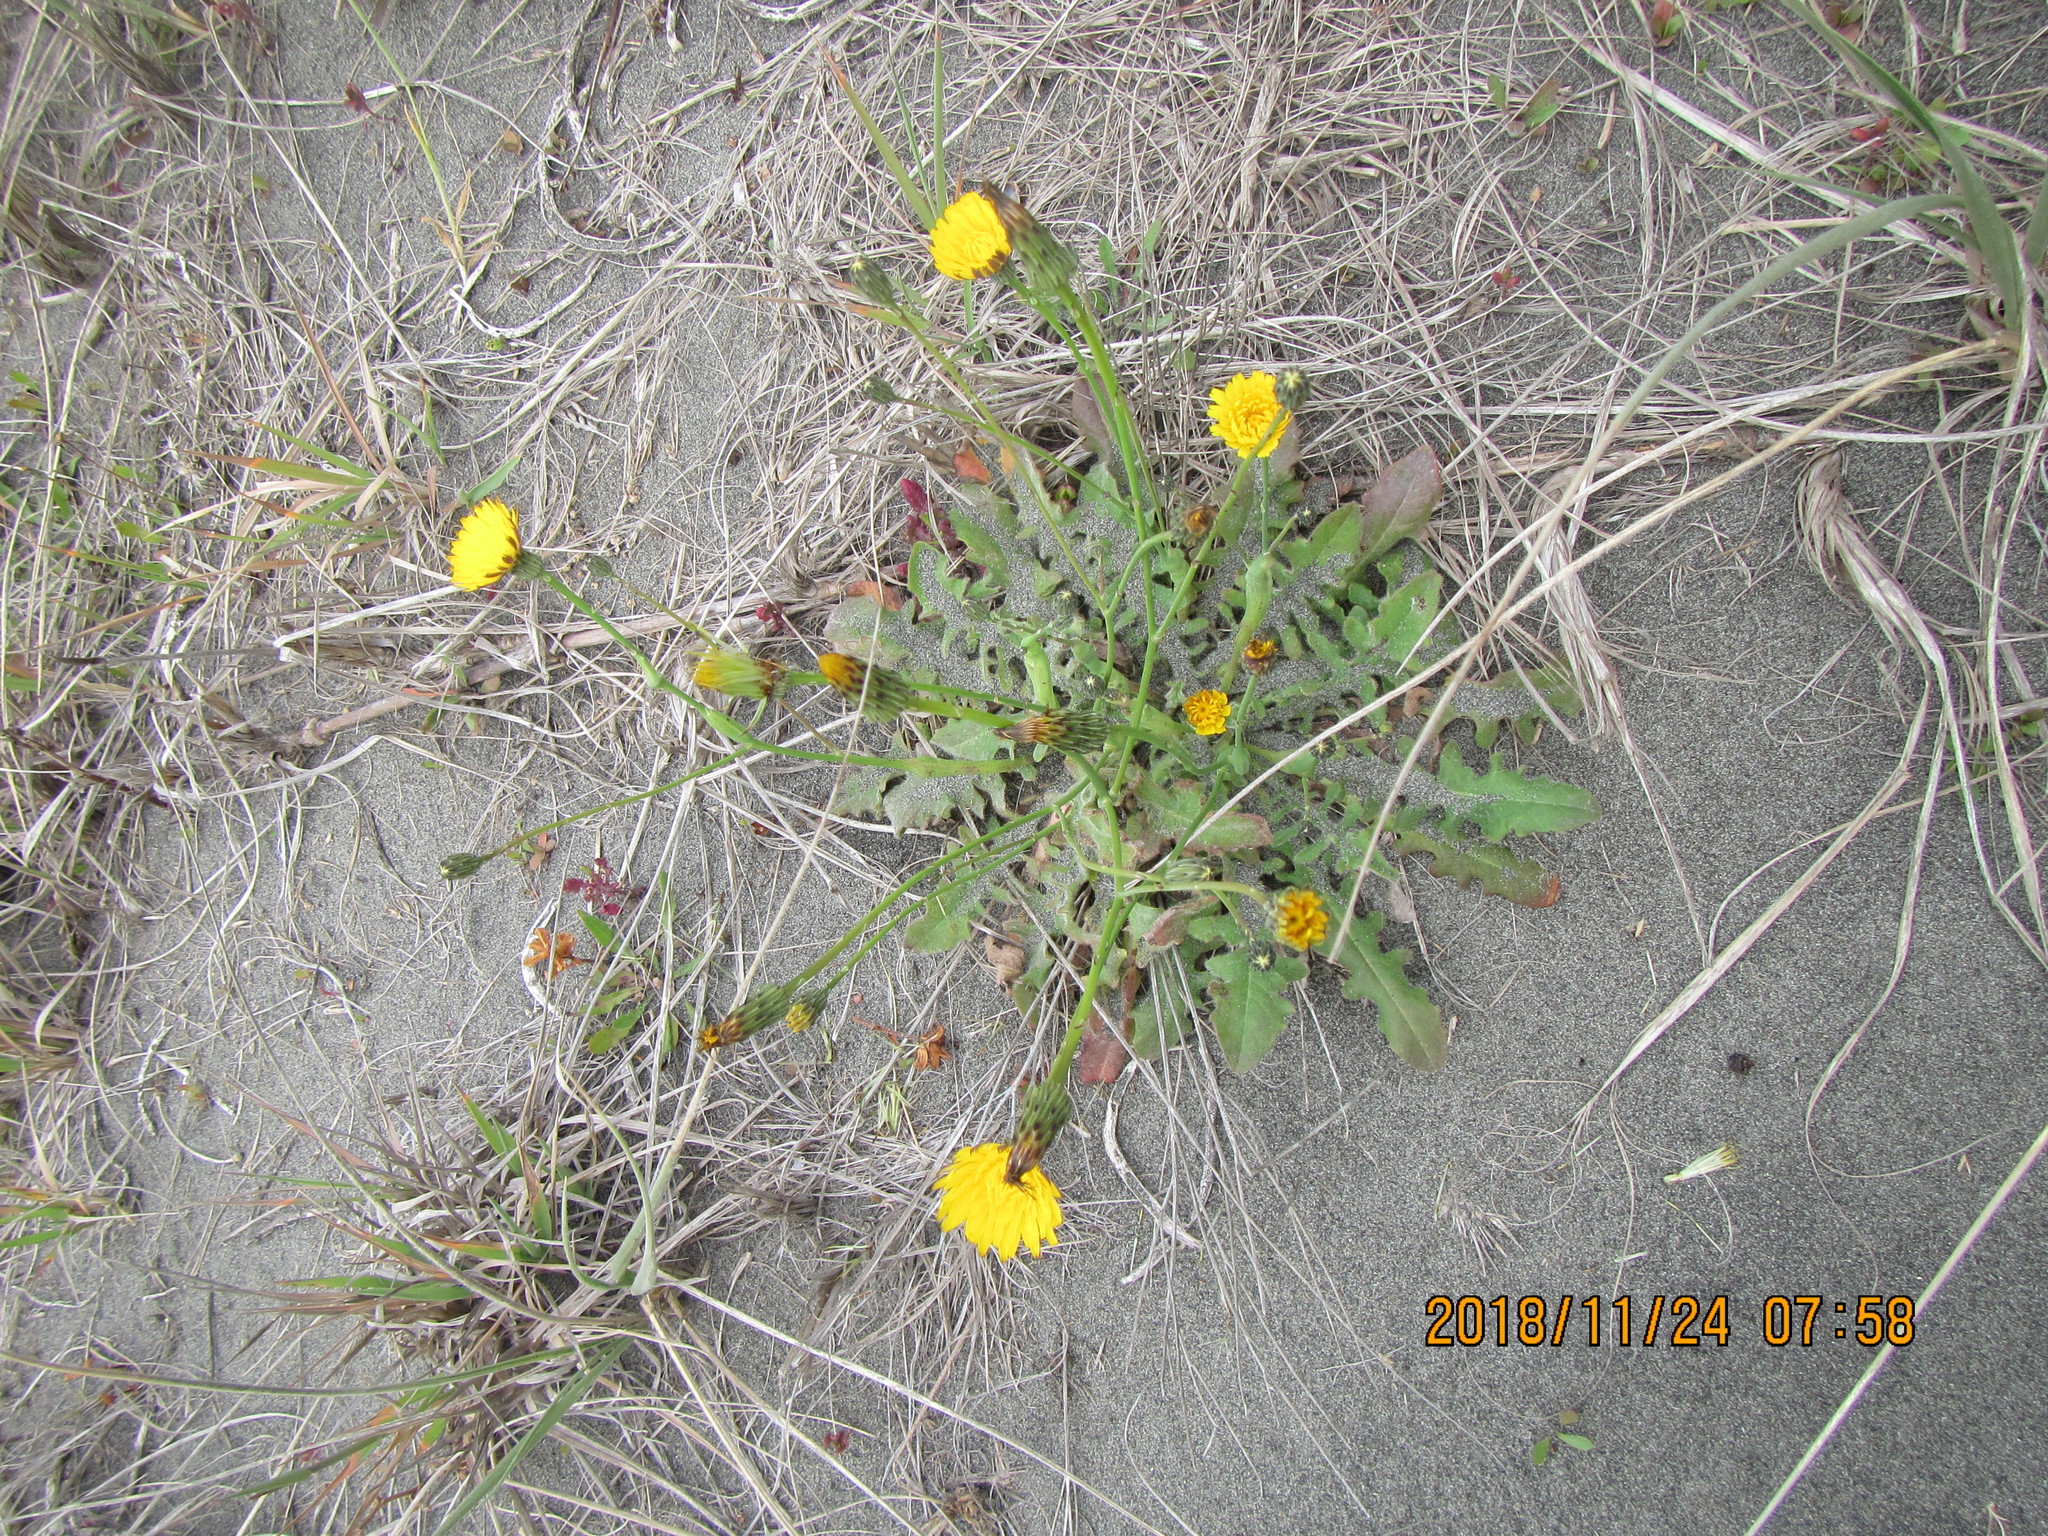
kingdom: Plantae
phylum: Tracheophyta
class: Magnoliopsida
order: Asterales
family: Asteraceae
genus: Hypochaeris
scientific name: Hypochaeris radicata
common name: Flatweed
